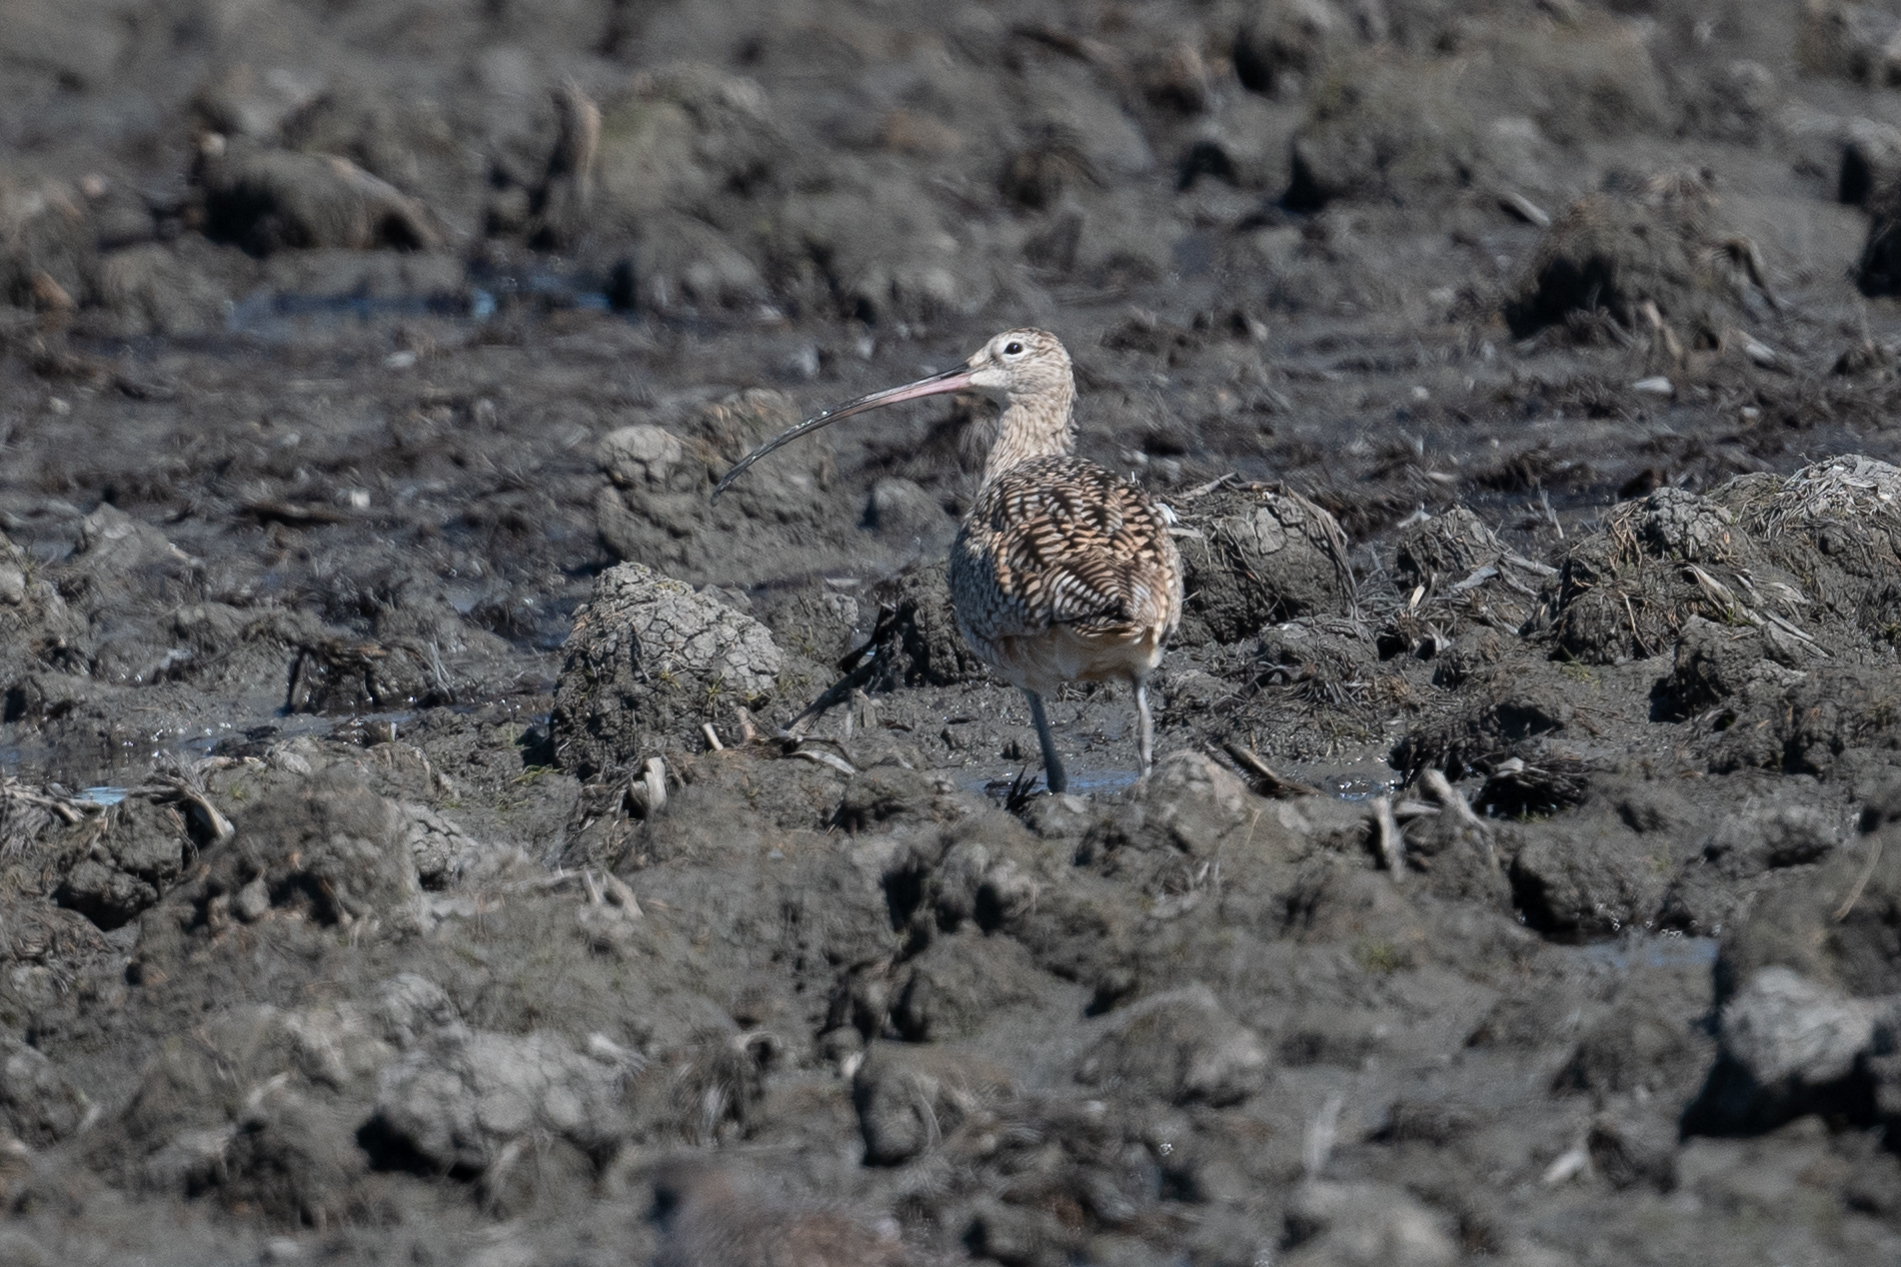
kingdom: Animalia
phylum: Chordata
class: Aves
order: Charadriiformes
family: Scolopacidae
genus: Numenius
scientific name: Numenius americanus
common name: Long-billed curlew
